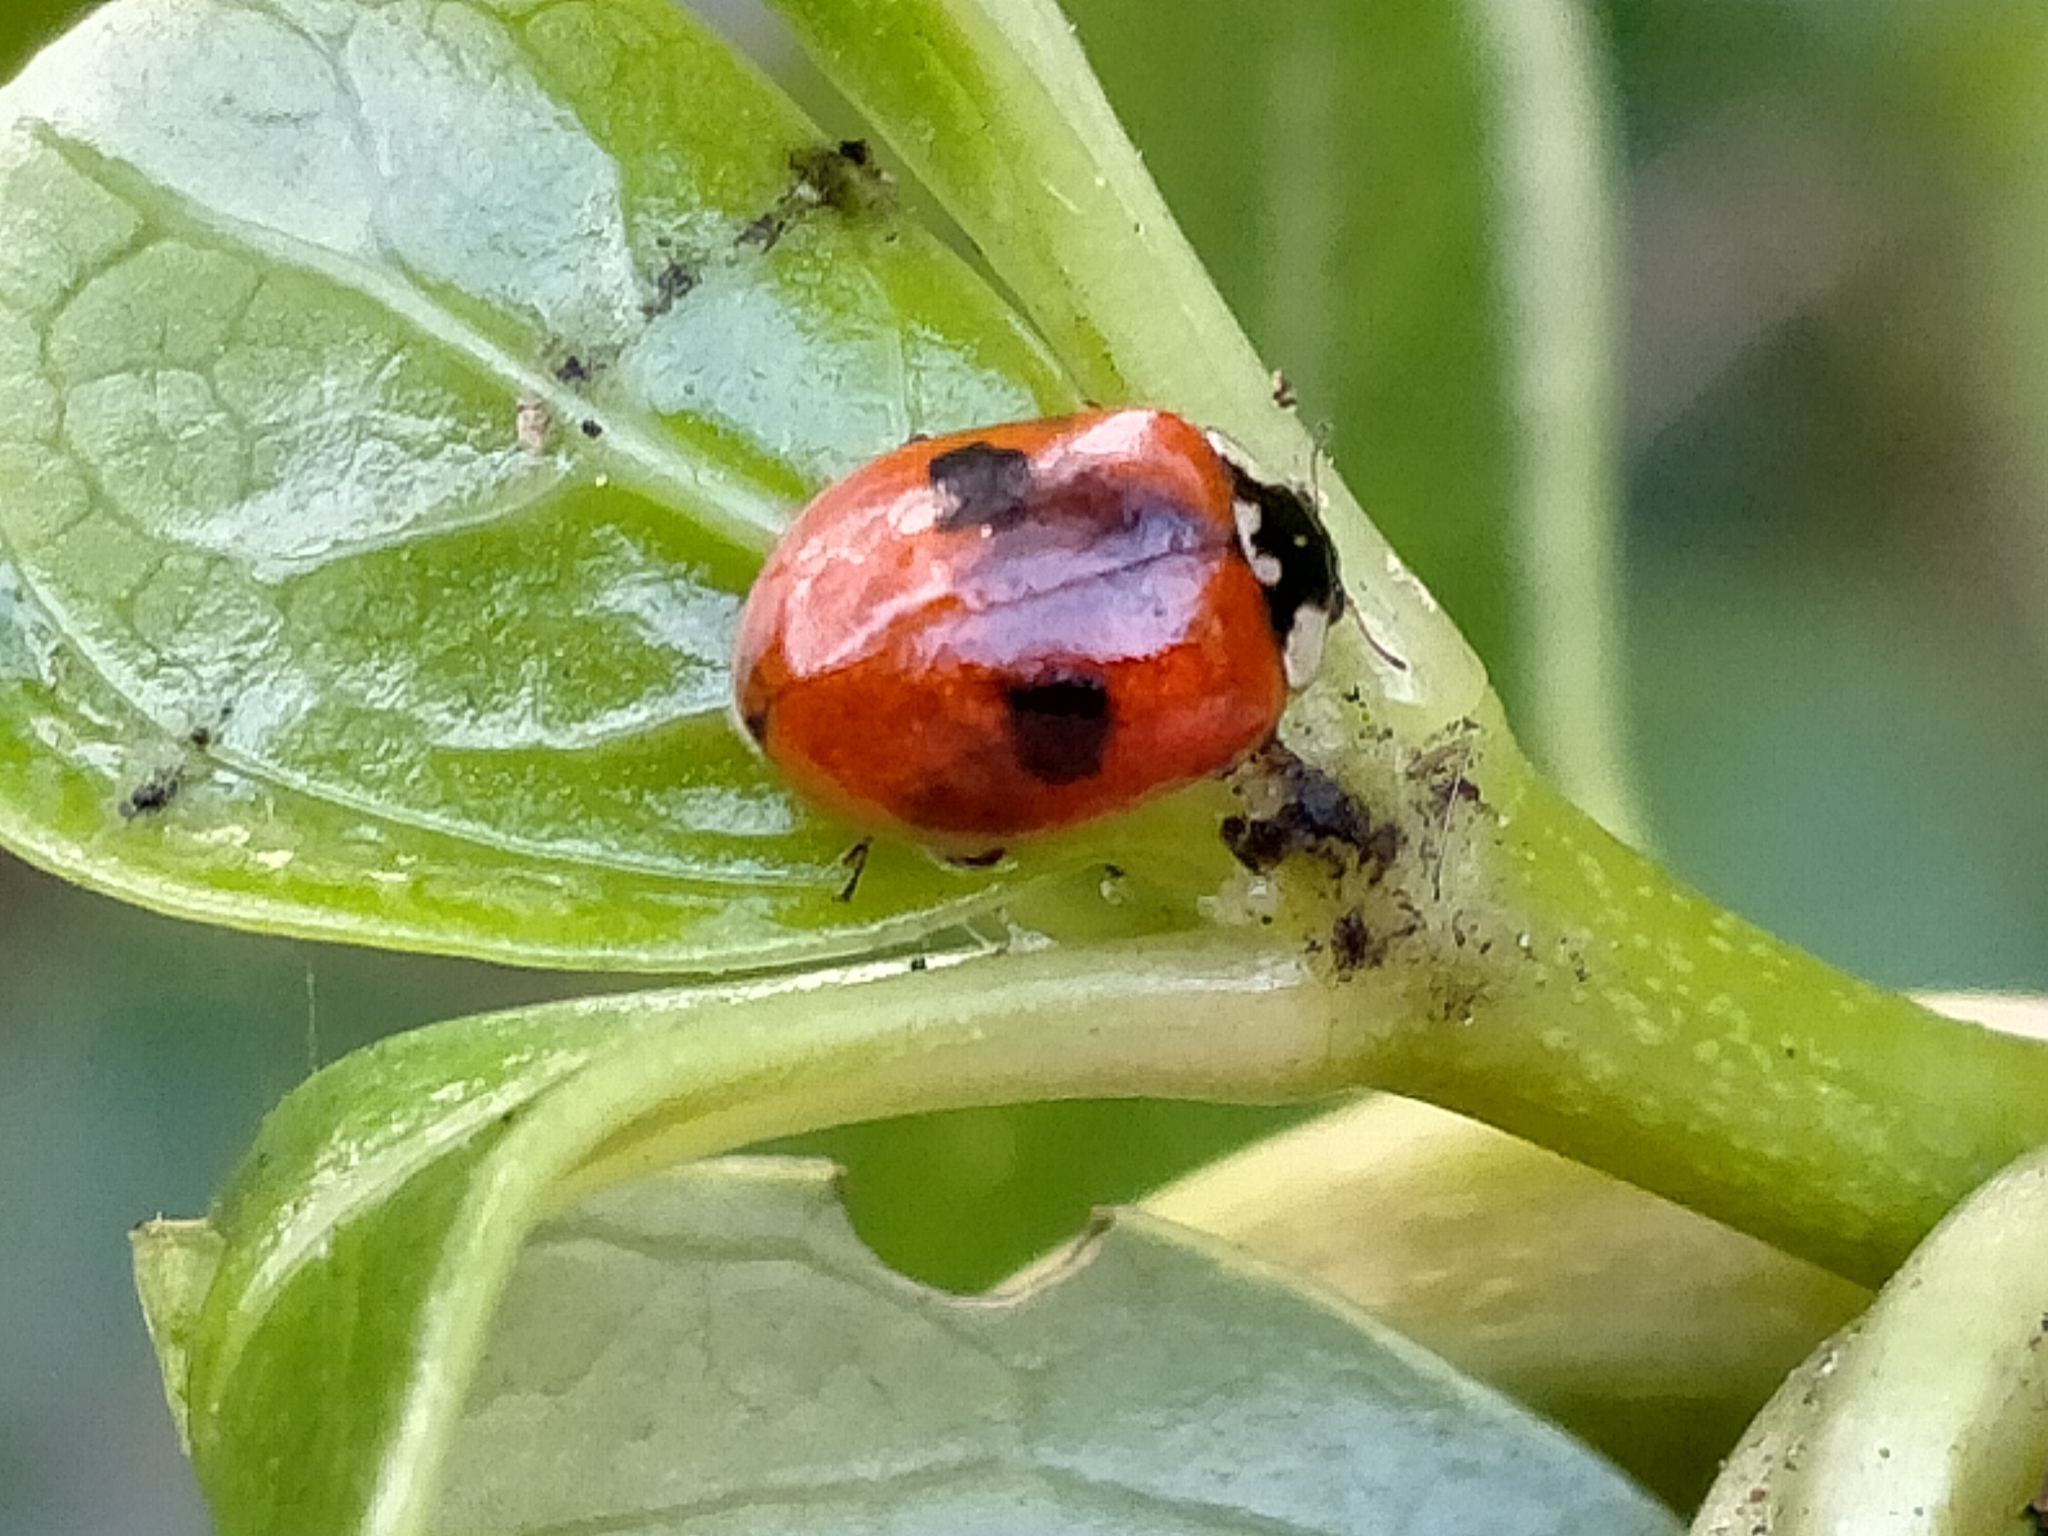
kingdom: Animalia
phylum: Arthropoda
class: Insecta
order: Coleoptera
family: Coccinellidae
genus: Adalia
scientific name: Adalia bipunctata
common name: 2-spot ladybird
